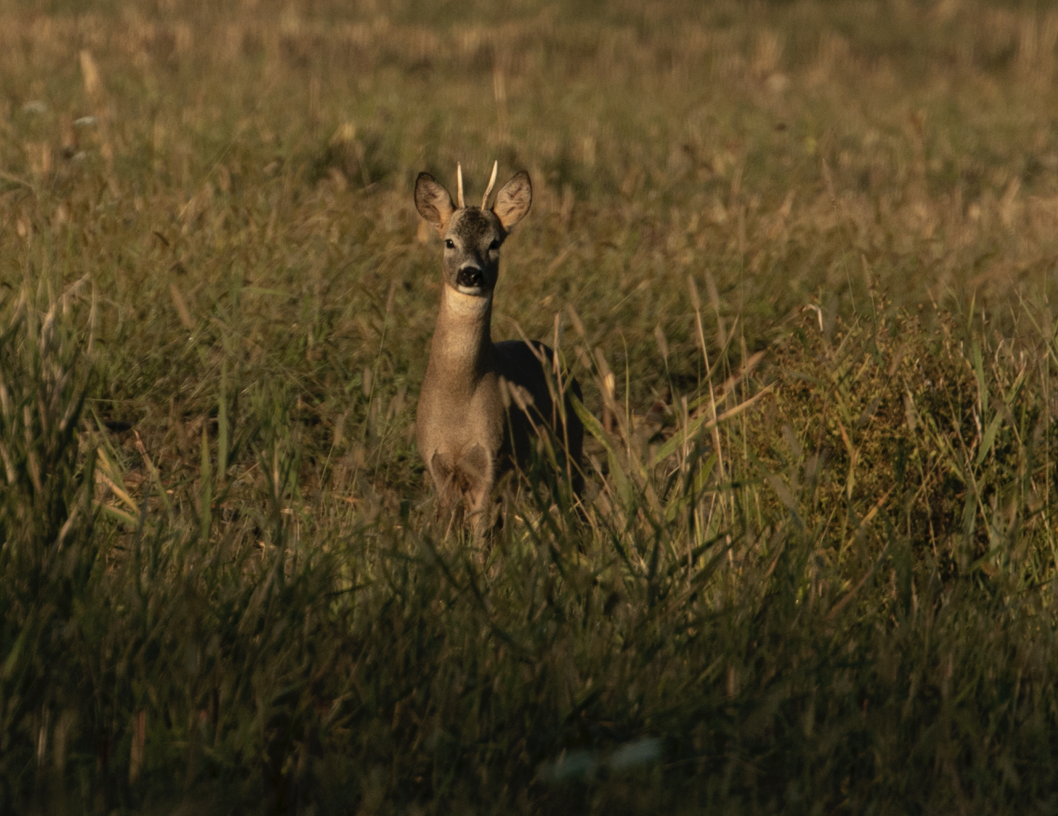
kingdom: Animalia
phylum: Chordata
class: Mammalia
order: Artiodactyla
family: Cervidae
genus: Capreolus
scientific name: Capreolus capreolus
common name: Western roe deer
